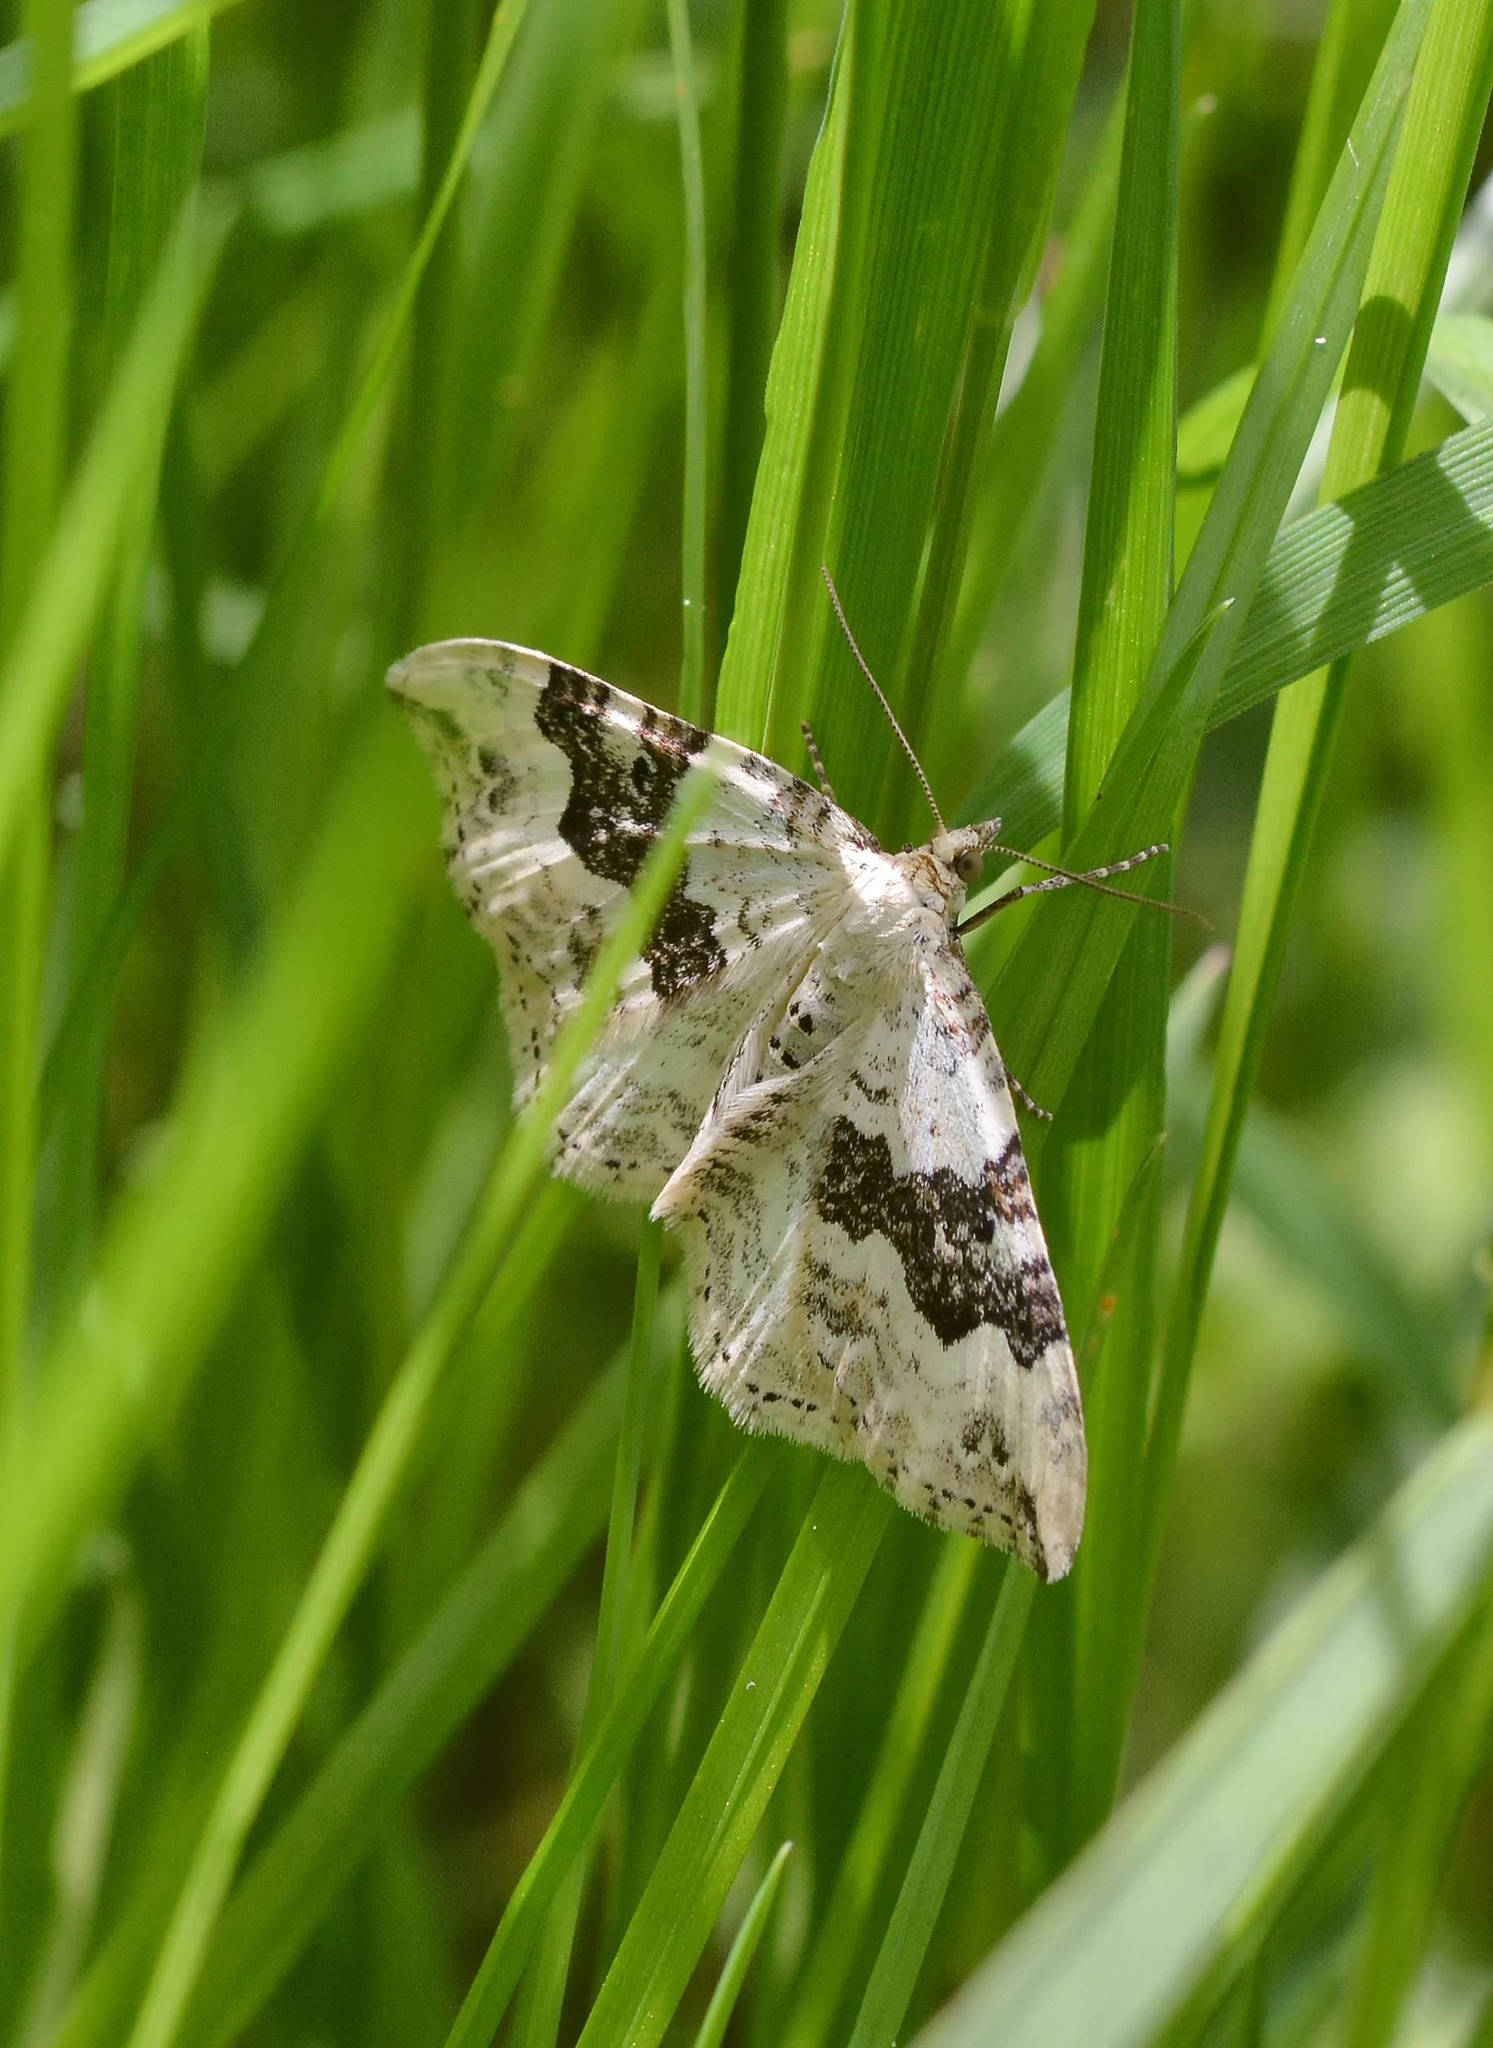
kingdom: Animalia
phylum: Arthropoda
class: Insecta
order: Lepidoptera
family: Geometridae
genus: Xanthorhoe
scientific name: Xanthorhoe montanata
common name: Silver-ground carpet
